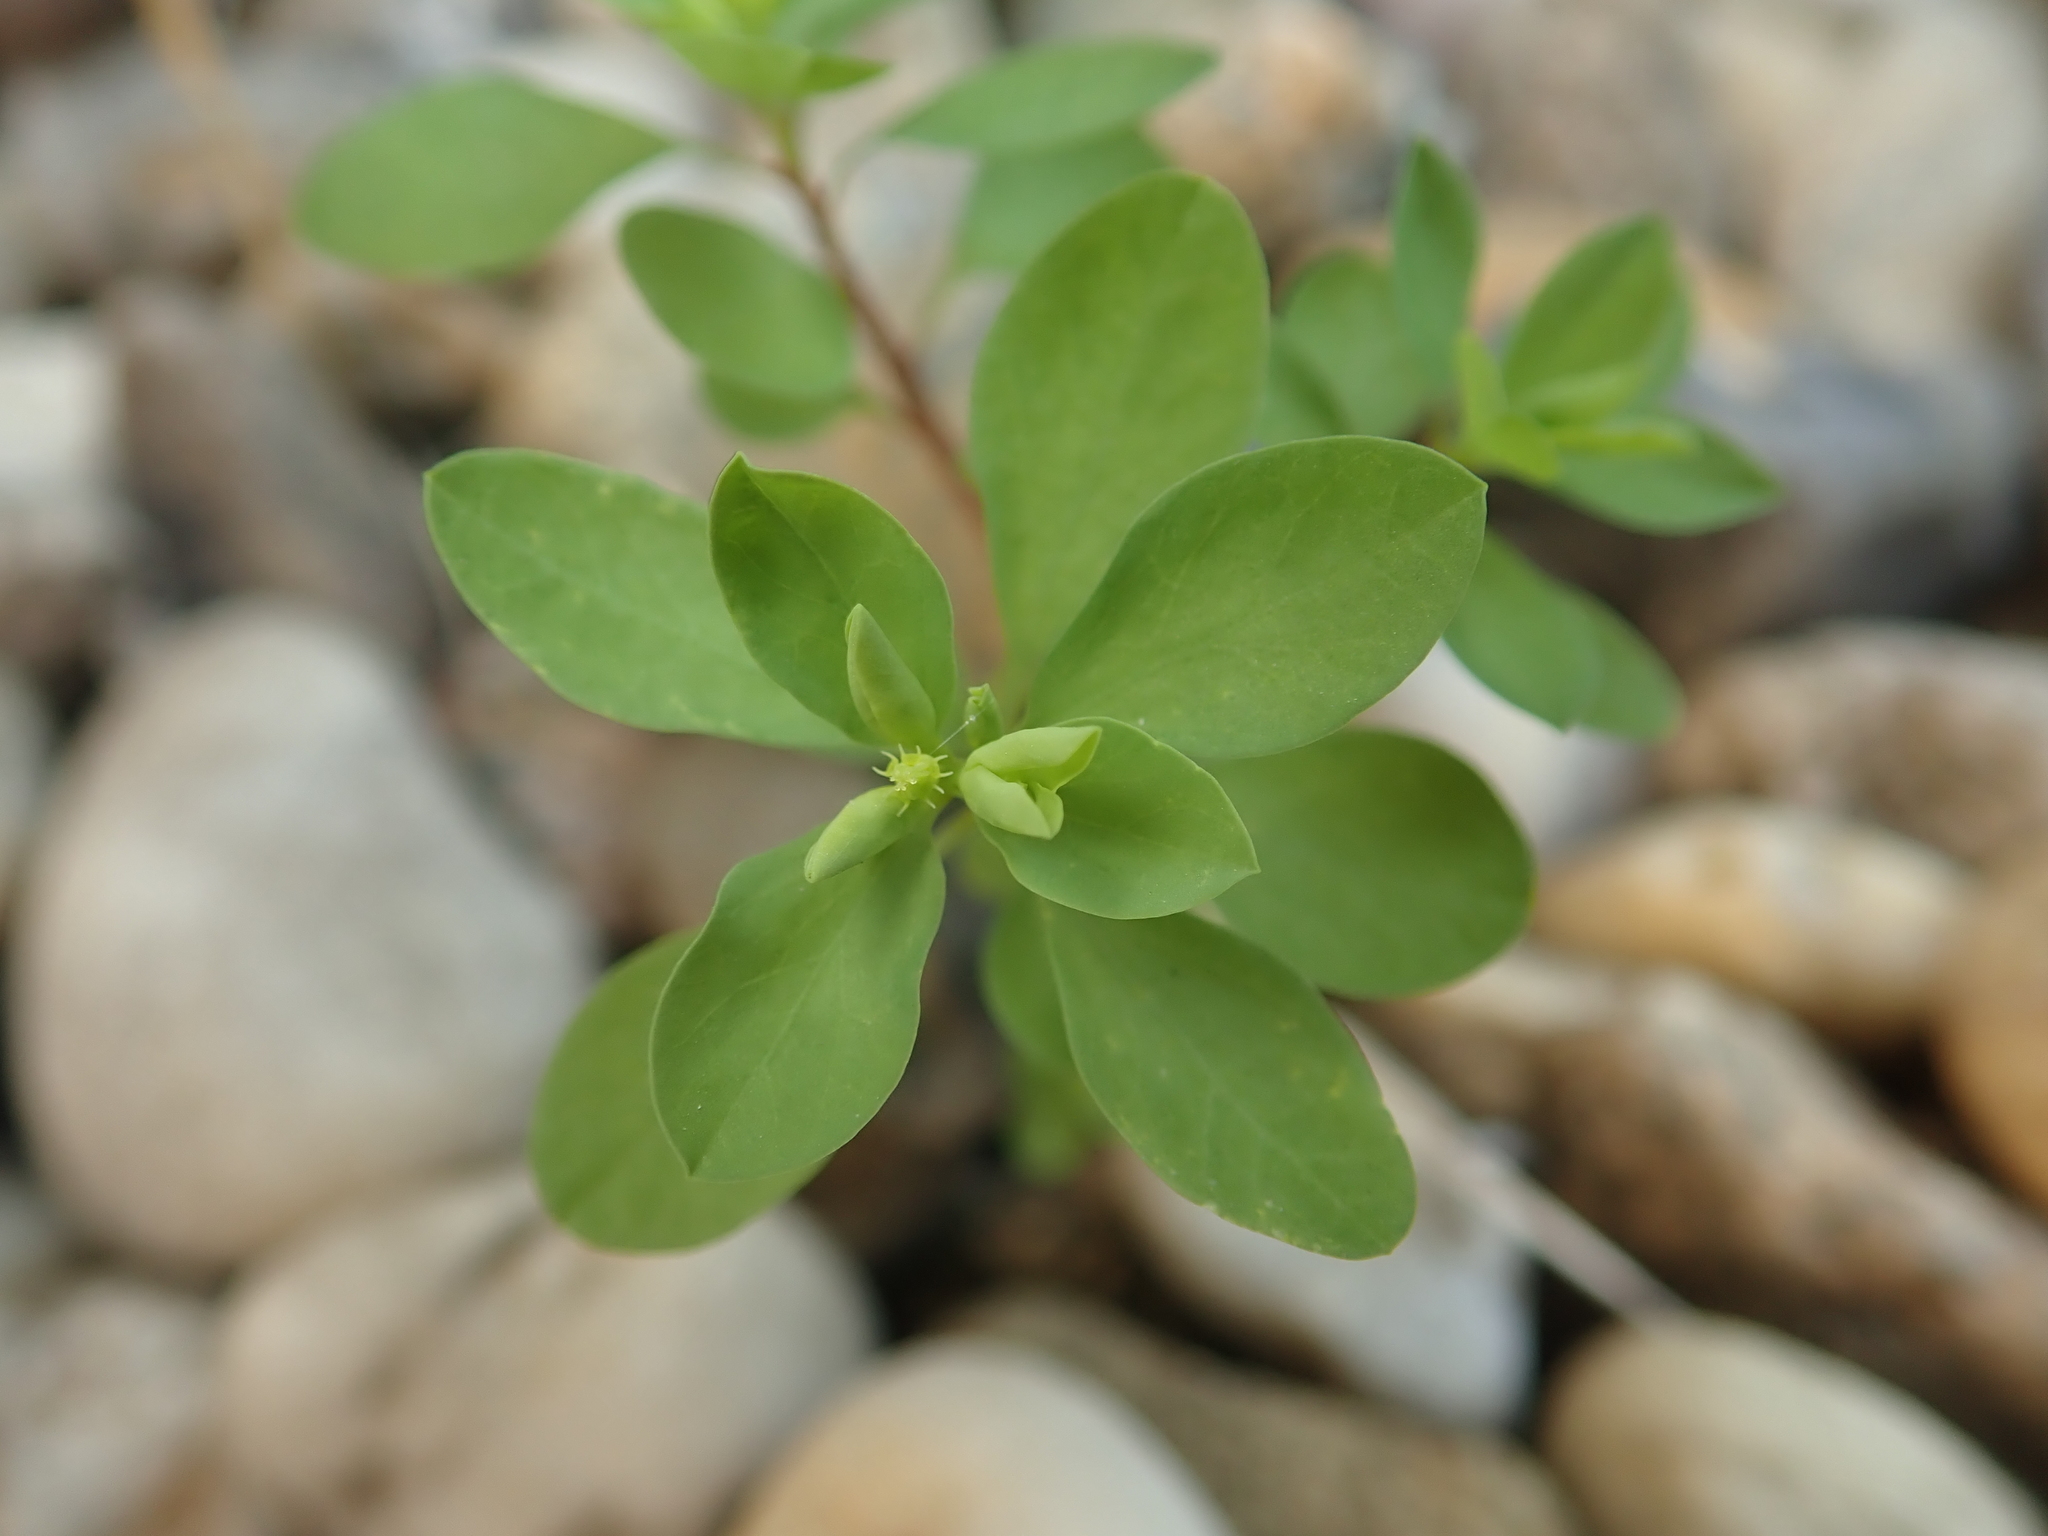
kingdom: Plantae
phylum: Tracheophyta
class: Magnoliopsida
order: Malpighiales
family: Euphorbiaceae
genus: Euphorbia
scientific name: Euphorbia peplus
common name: Petty spurge
